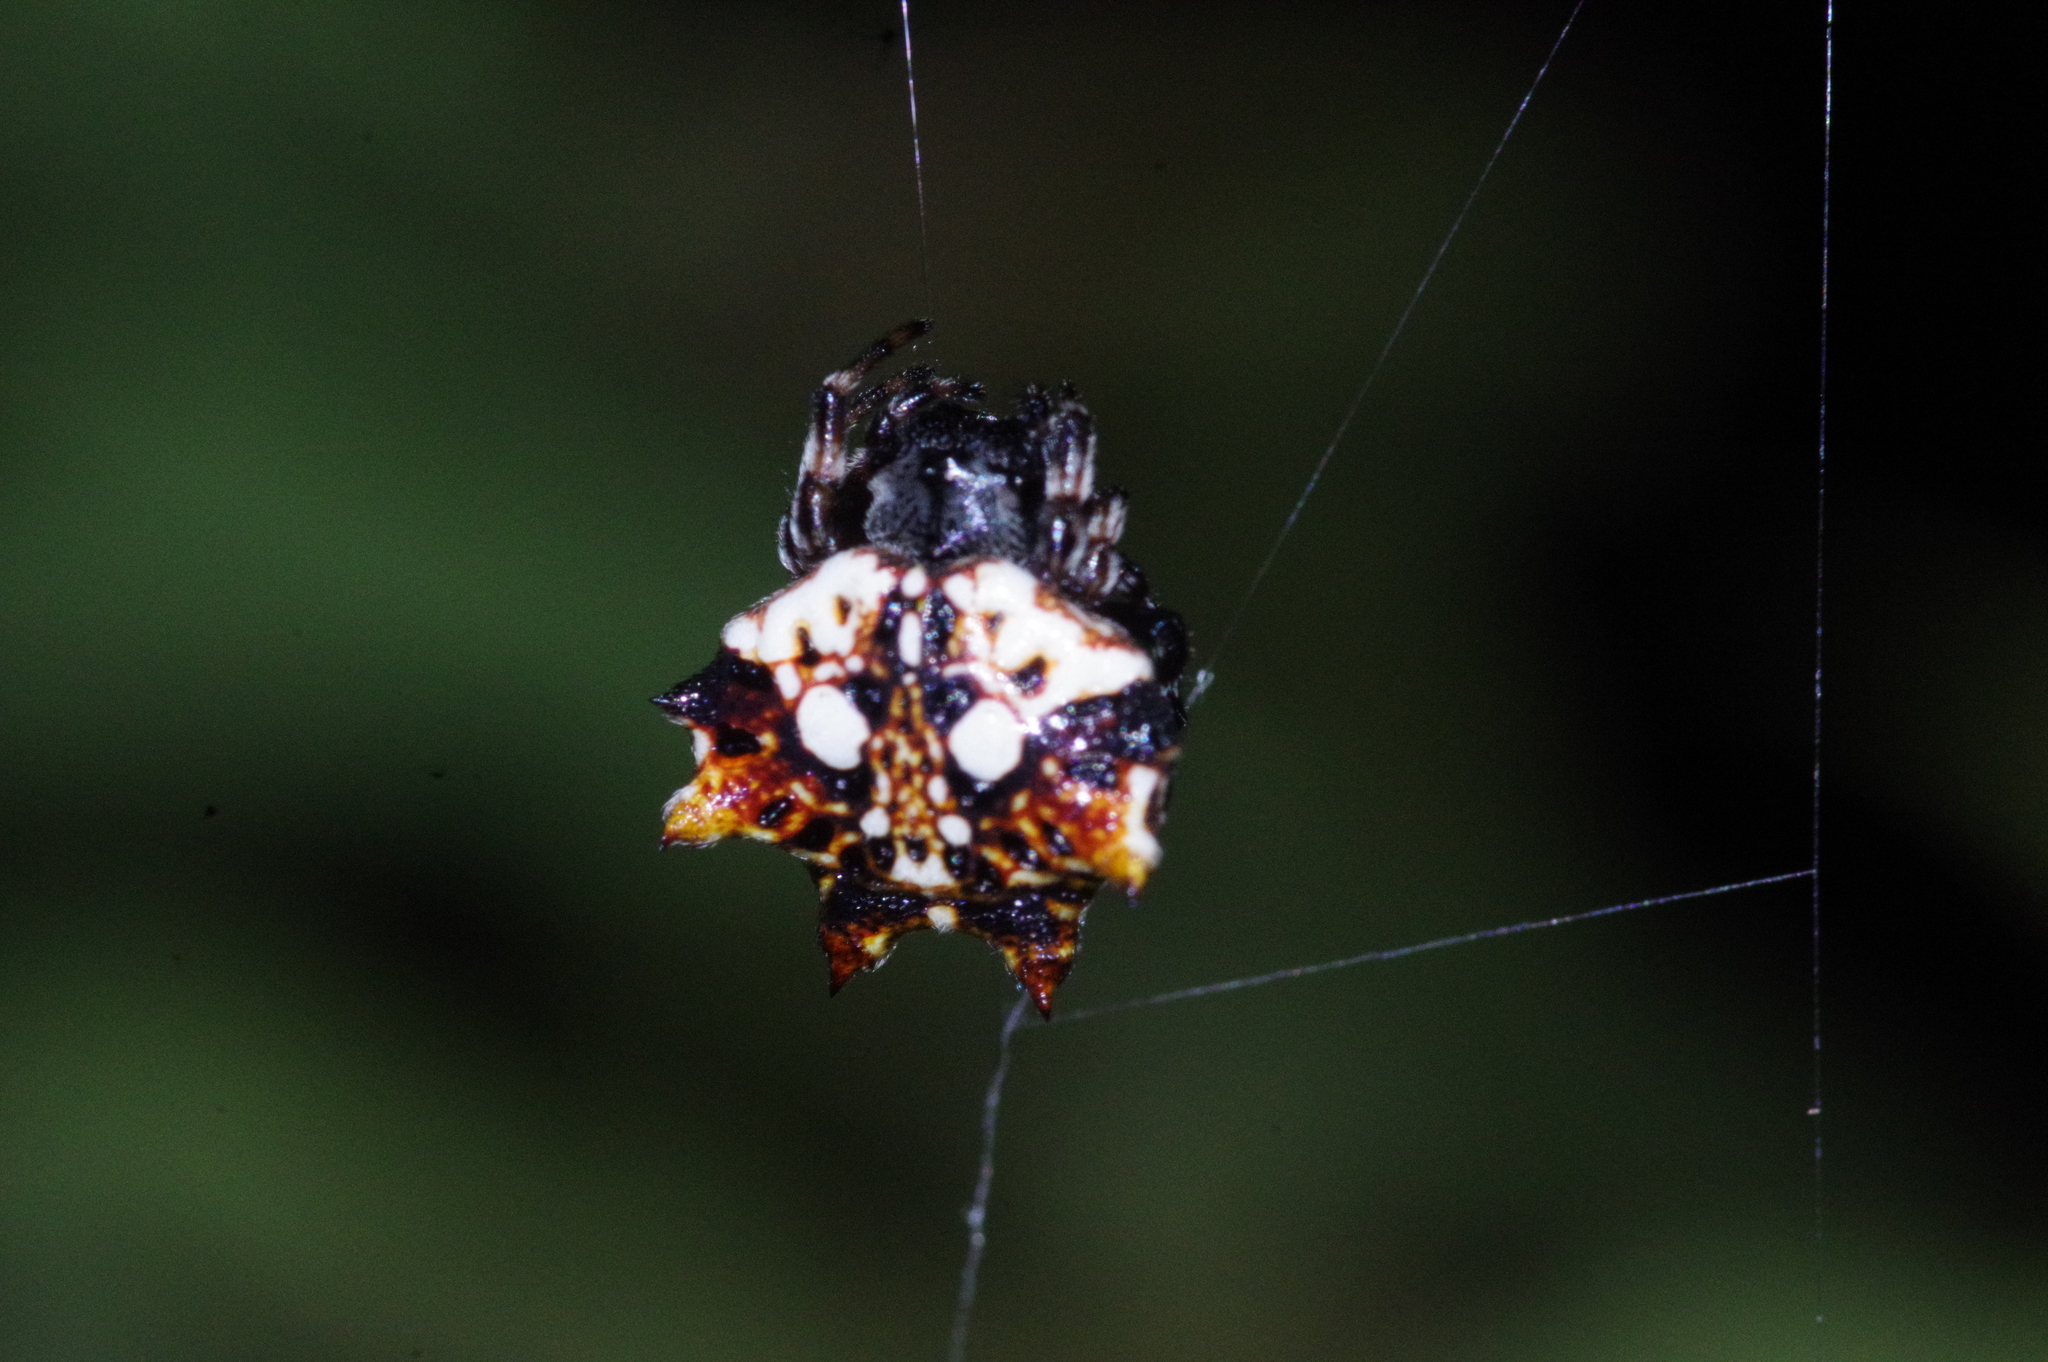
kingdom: Animalia
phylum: Arthropoda
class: Arachnida
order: Araneae
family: Araneidae
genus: Thelacantha
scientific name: Thelacantha brevispina
